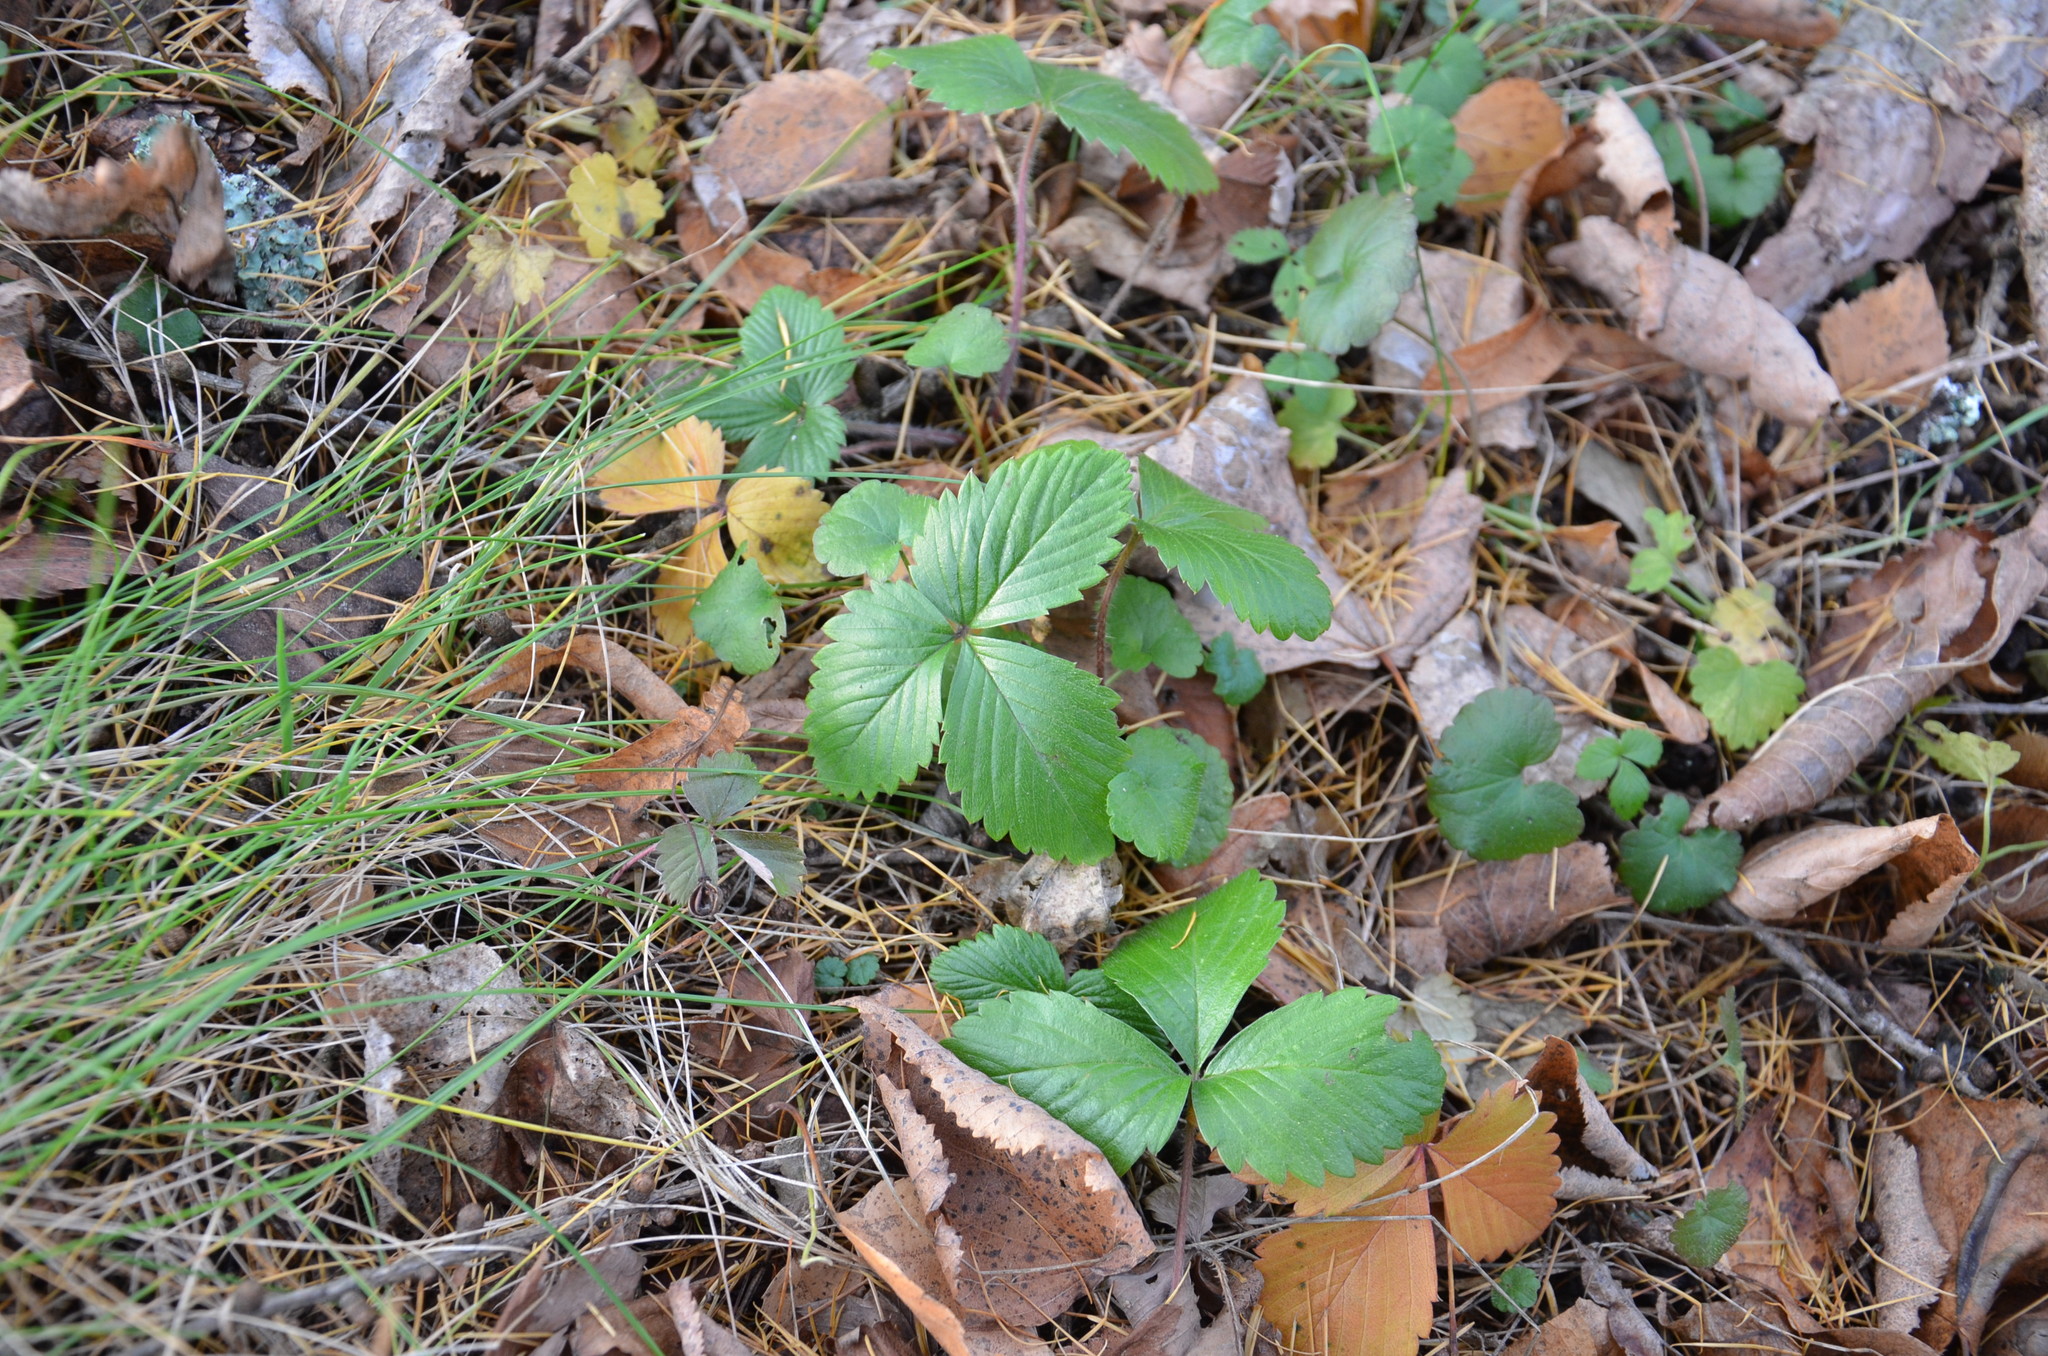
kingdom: Plantae
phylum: Tracheophyta
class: Magnoliopsida
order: Rosales
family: Rosaceae
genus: Fragaria
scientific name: Fragaria vesca
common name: Wild strawberry
